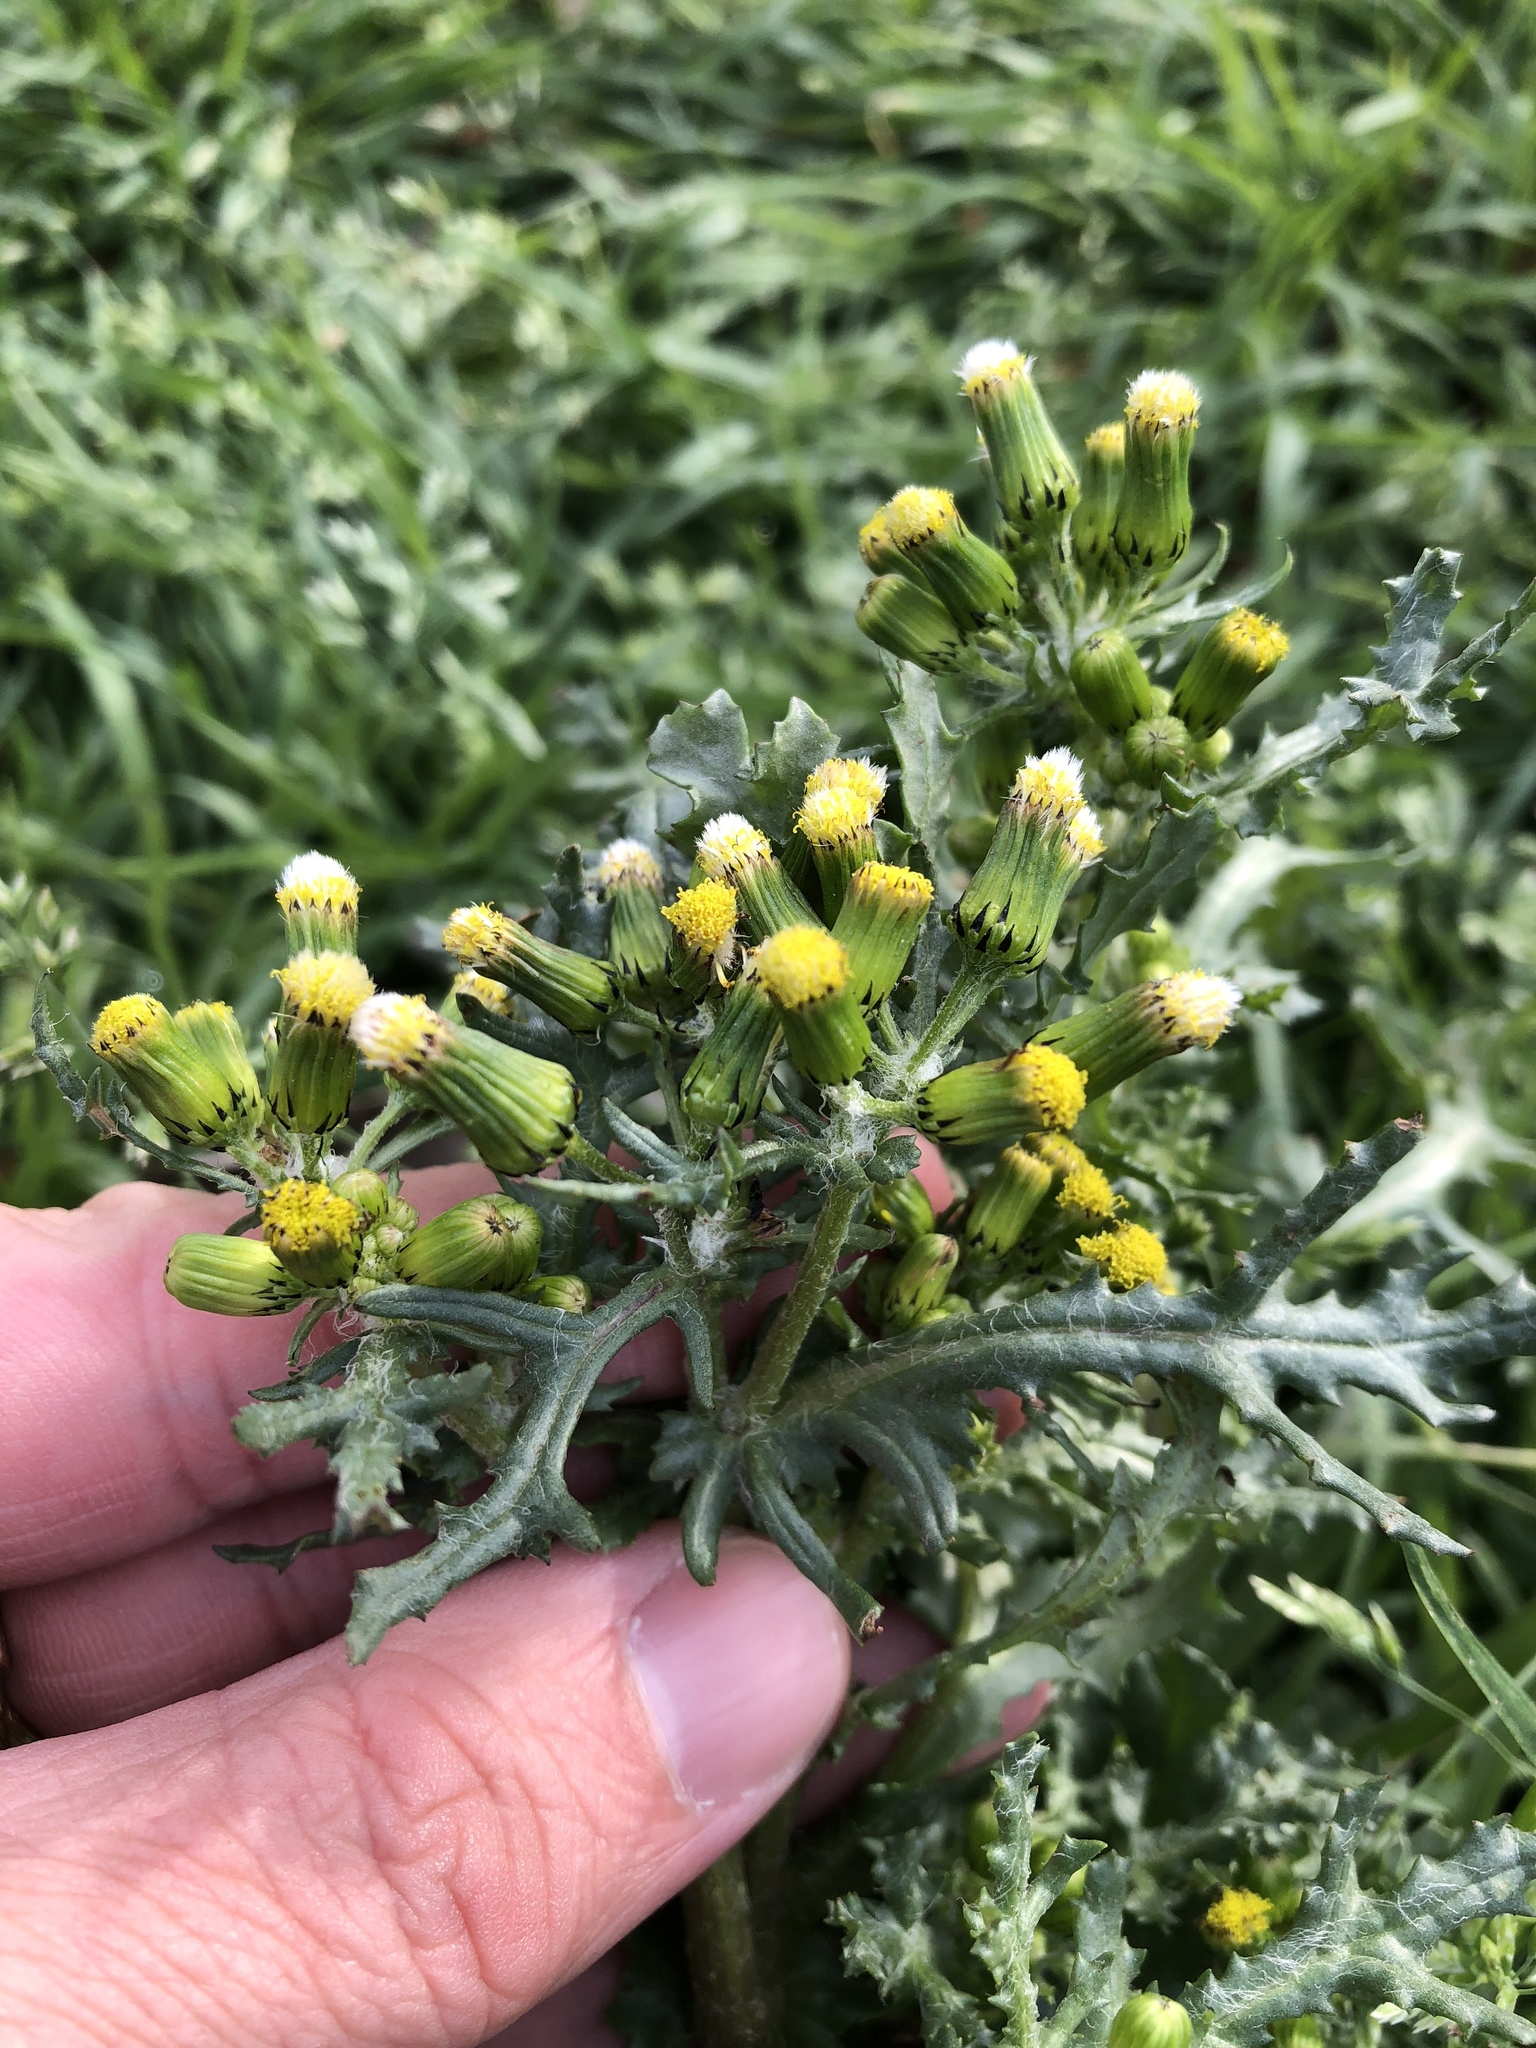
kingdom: Plantae
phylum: Tracheophyta
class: Magnoliopsida
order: Asterales
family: Asteraceae
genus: Senecio
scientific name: Senecio vulgaris
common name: Old-man-in-the-spring
